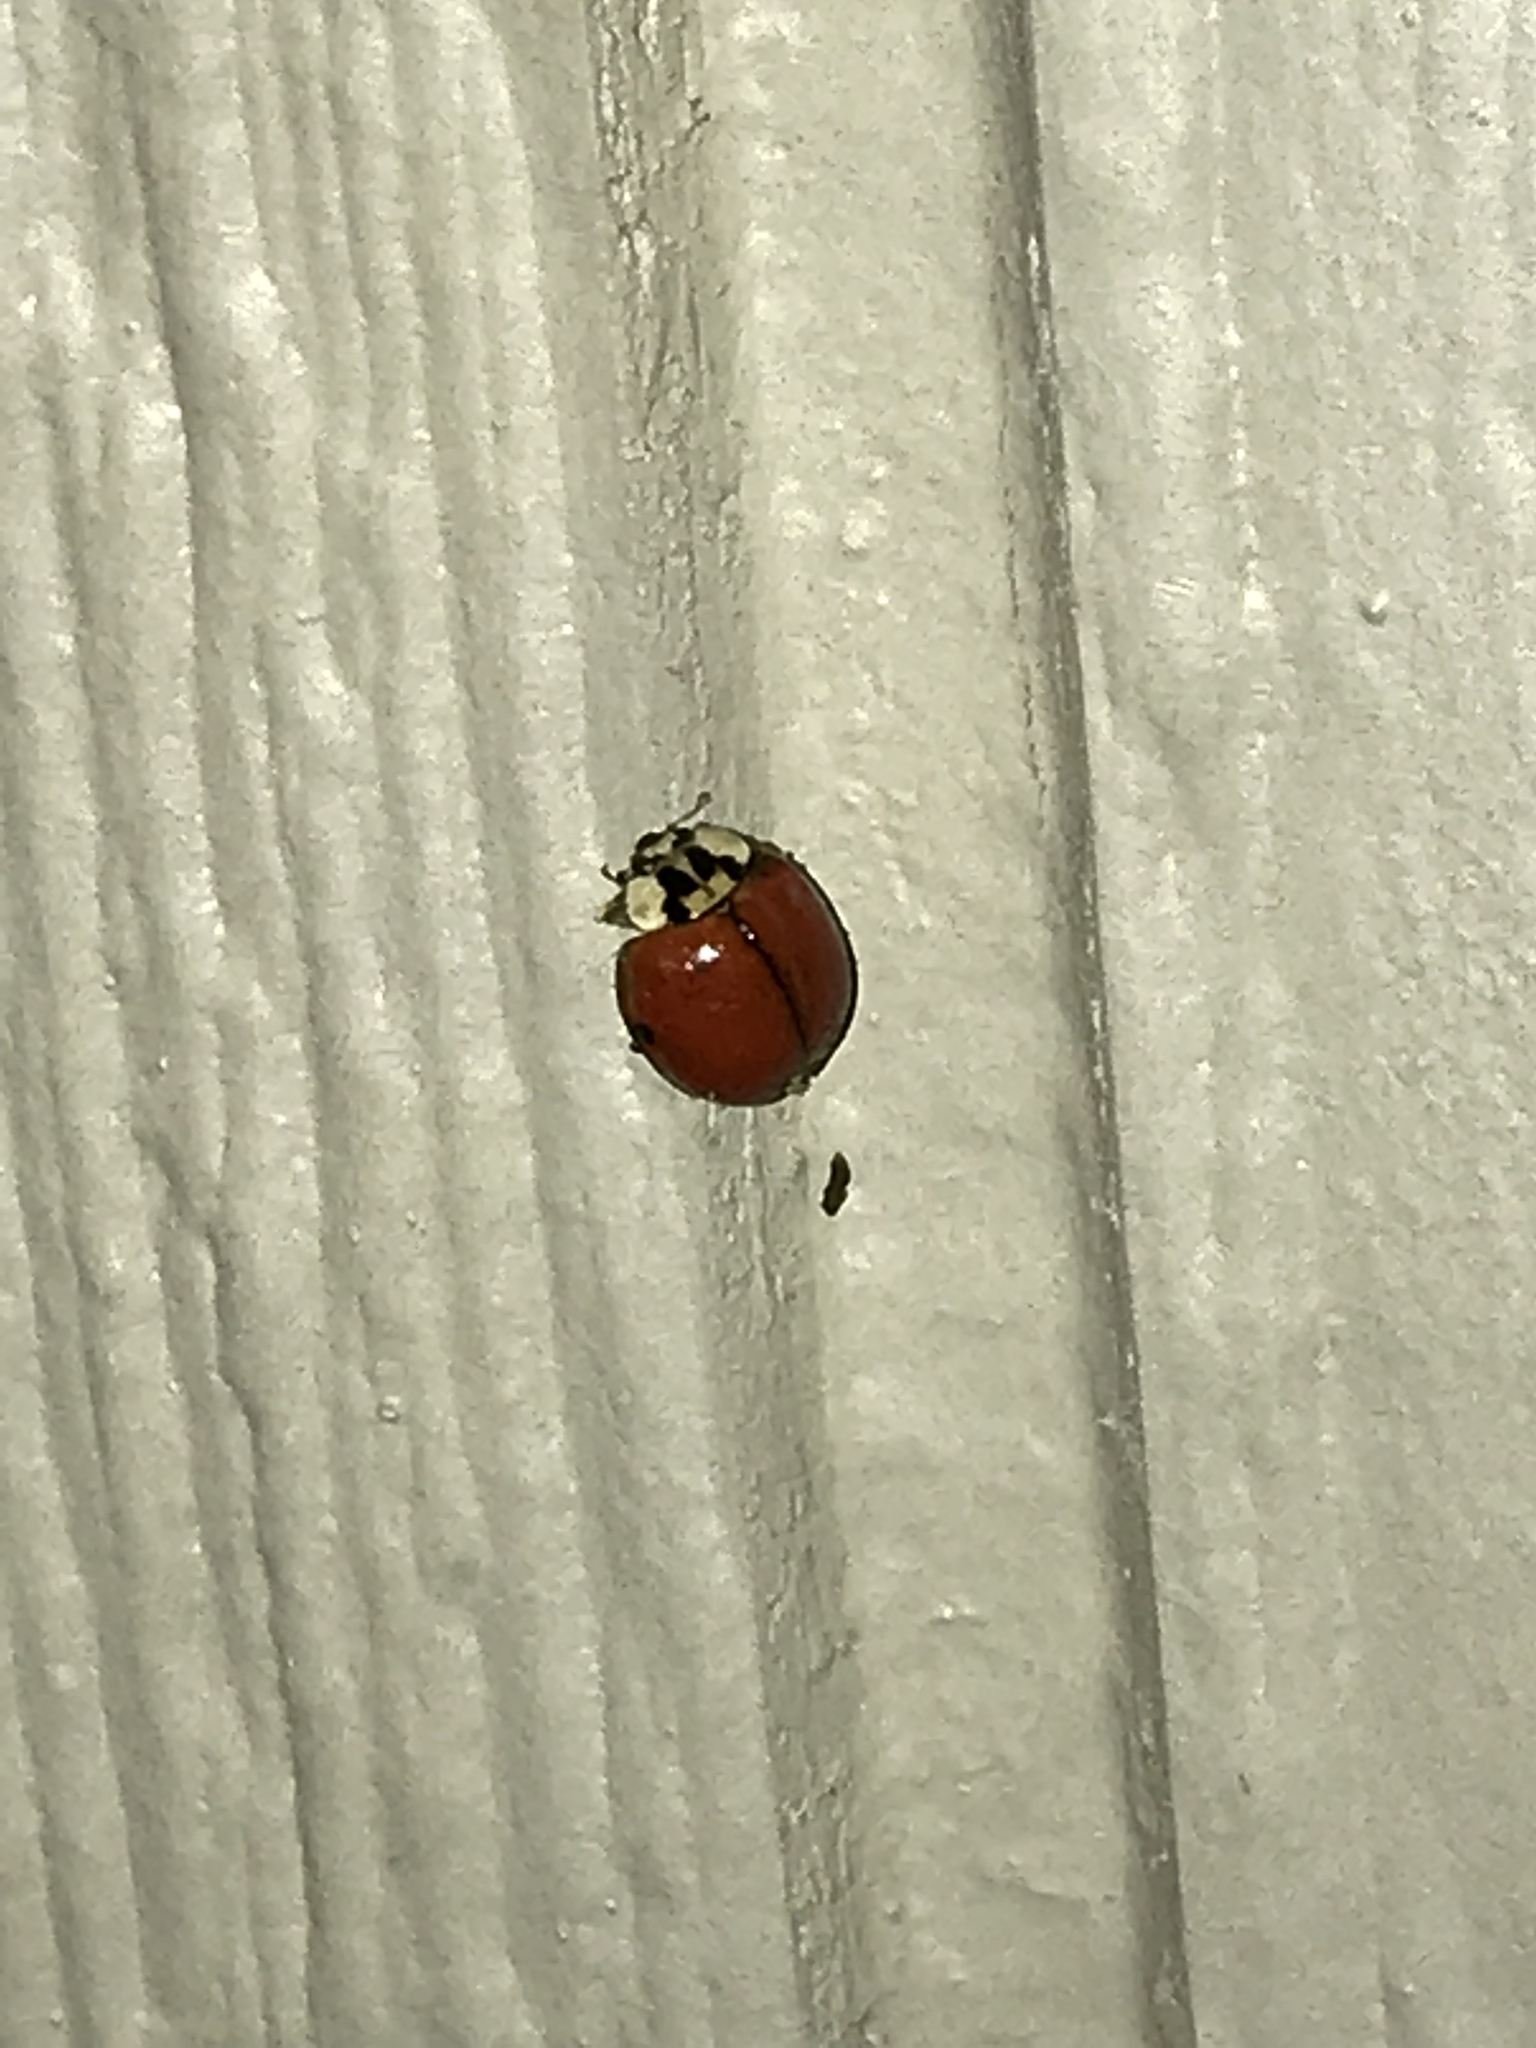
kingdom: Animalia
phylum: Arthropoda
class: Insecta
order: Coleoptera
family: Coccinellidae
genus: Harmonia
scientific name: Harmonia axyridis
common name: Harlequin ladybird
